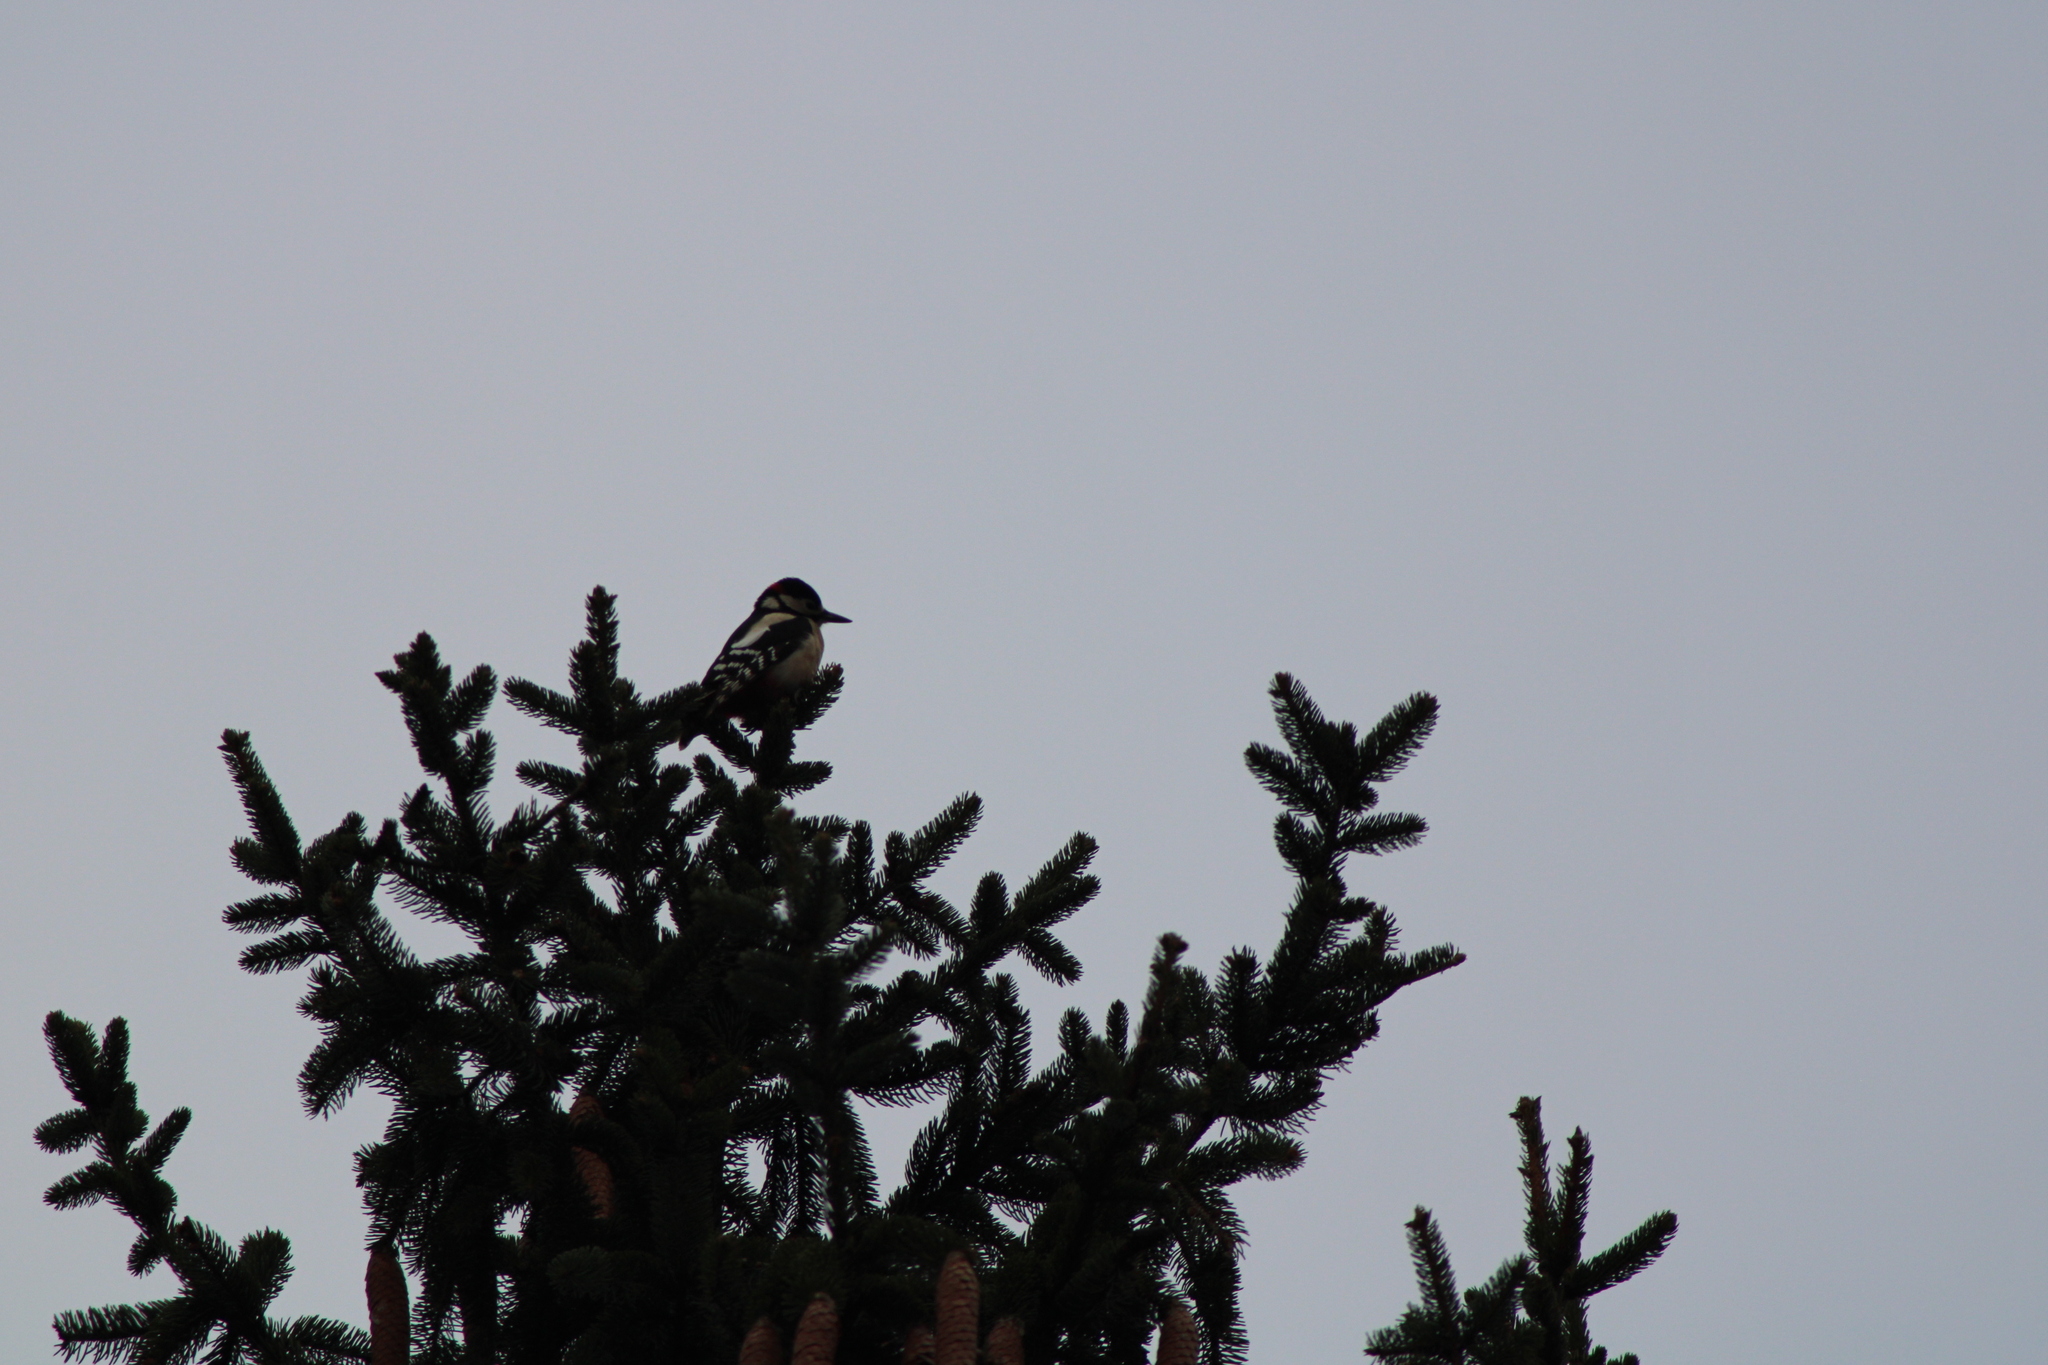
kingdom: Animalia
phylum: Chordata
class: Aves
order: Piciformes
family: Picidae
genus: Dendrocopos
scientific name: Dendrocopos major
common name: Great spotted woodpecker
